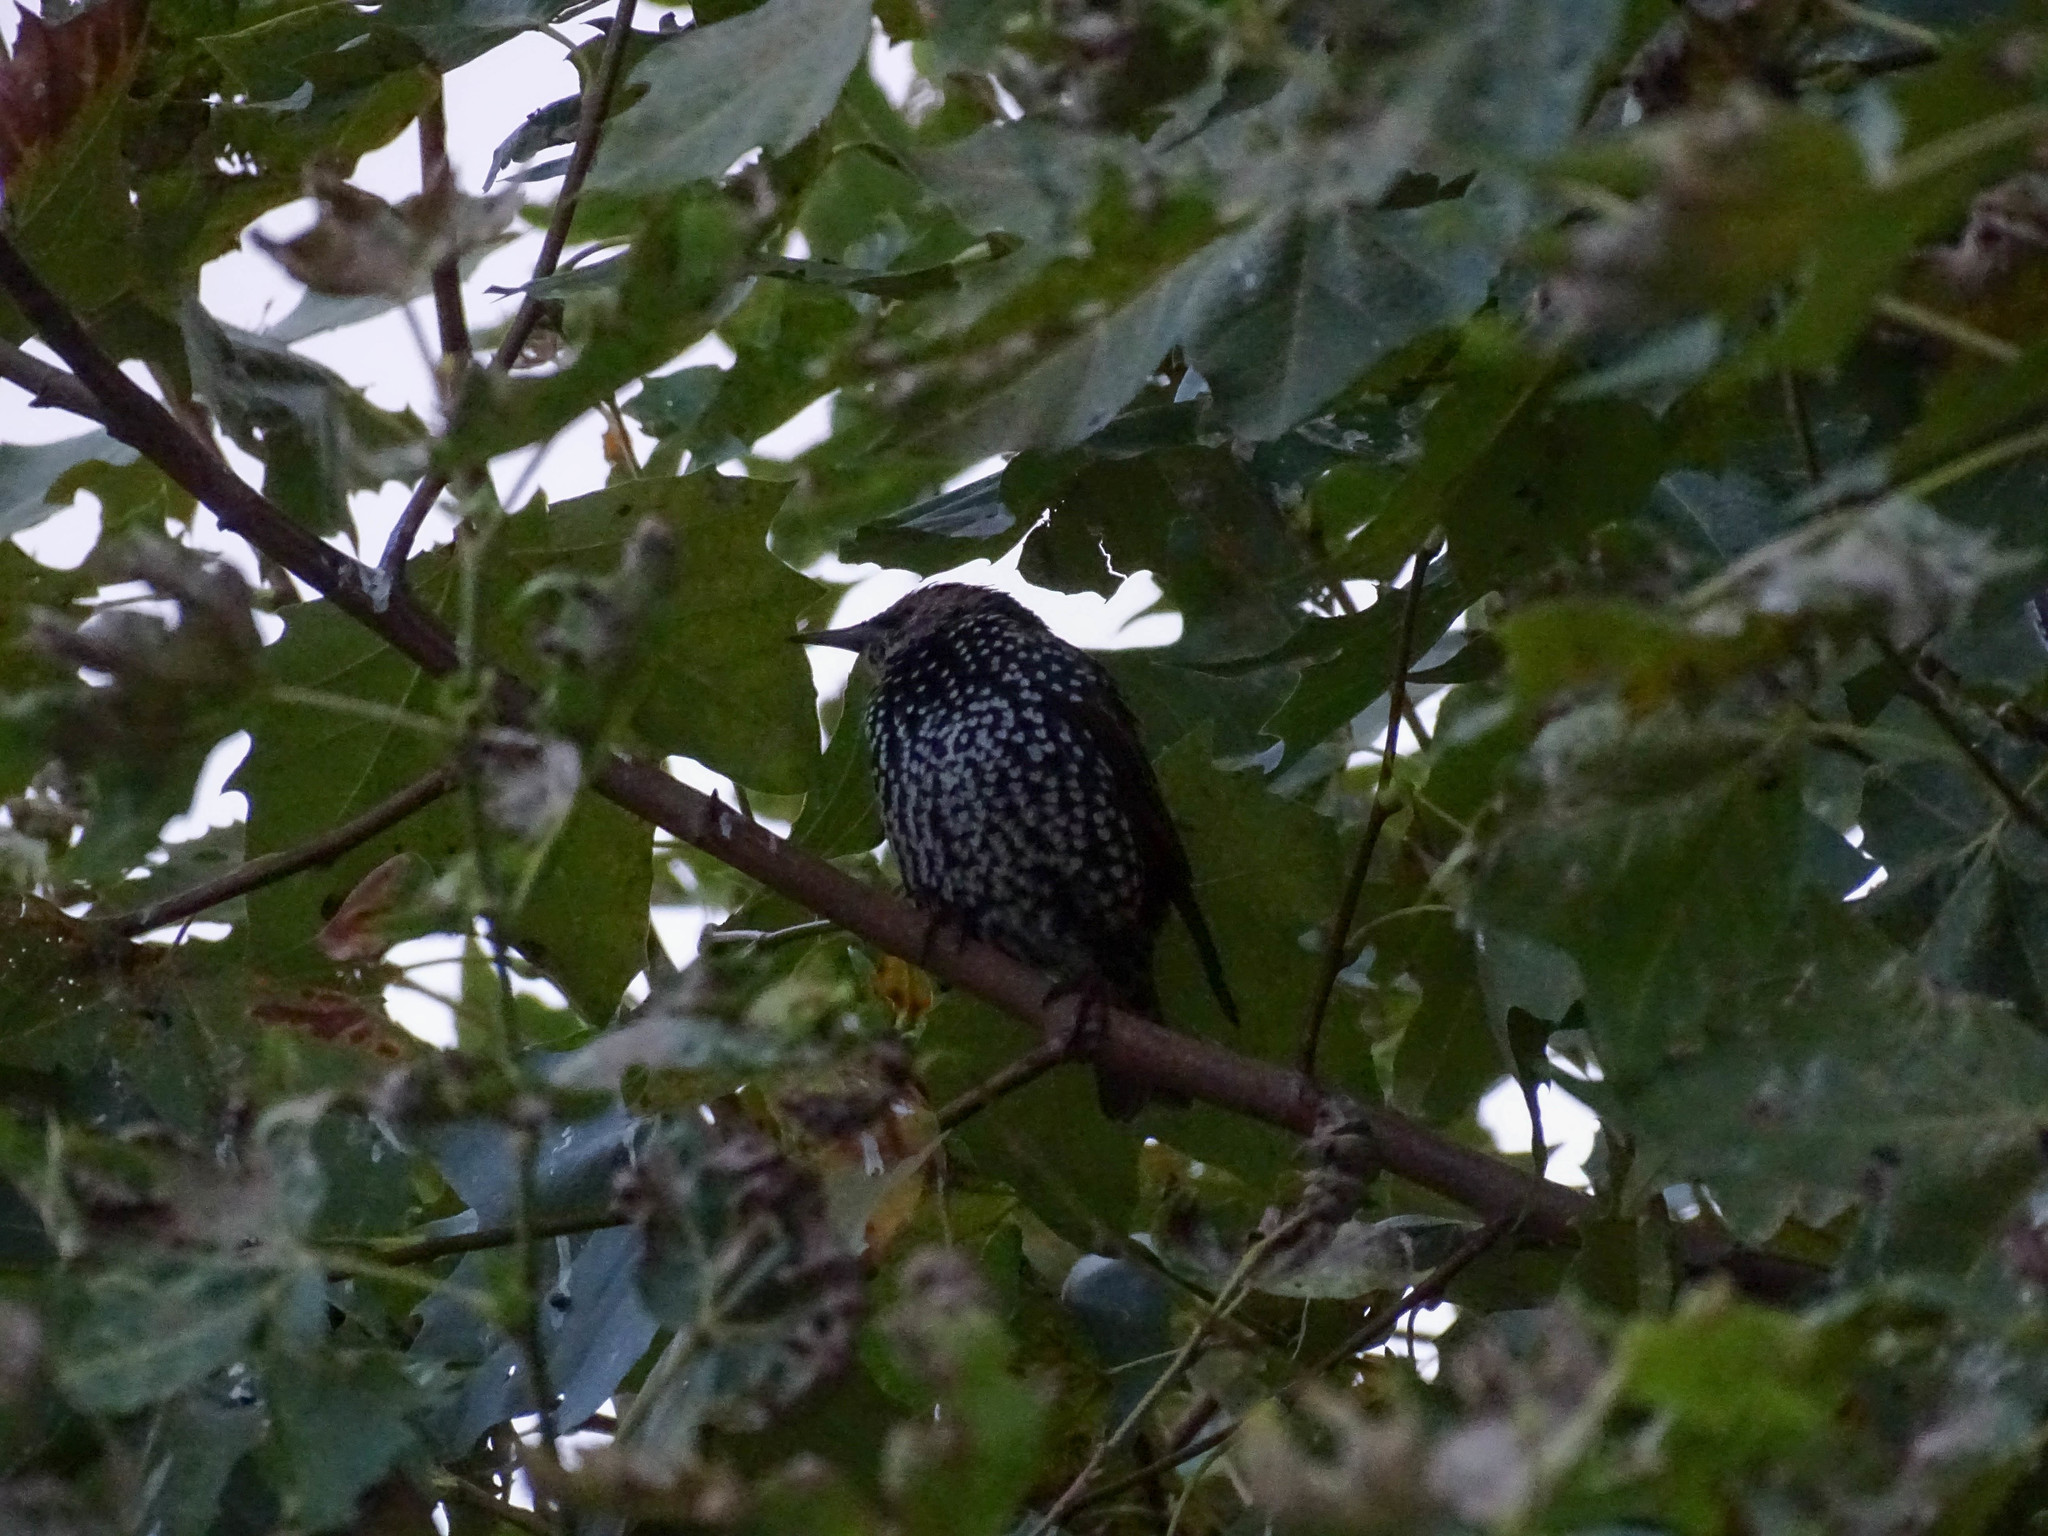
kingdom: Animalia
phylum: Chordata
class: Aves
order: Passeriformes
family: Sturnidae
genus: Sturnus
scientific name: Sturnus vulgaris
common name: Common starling
